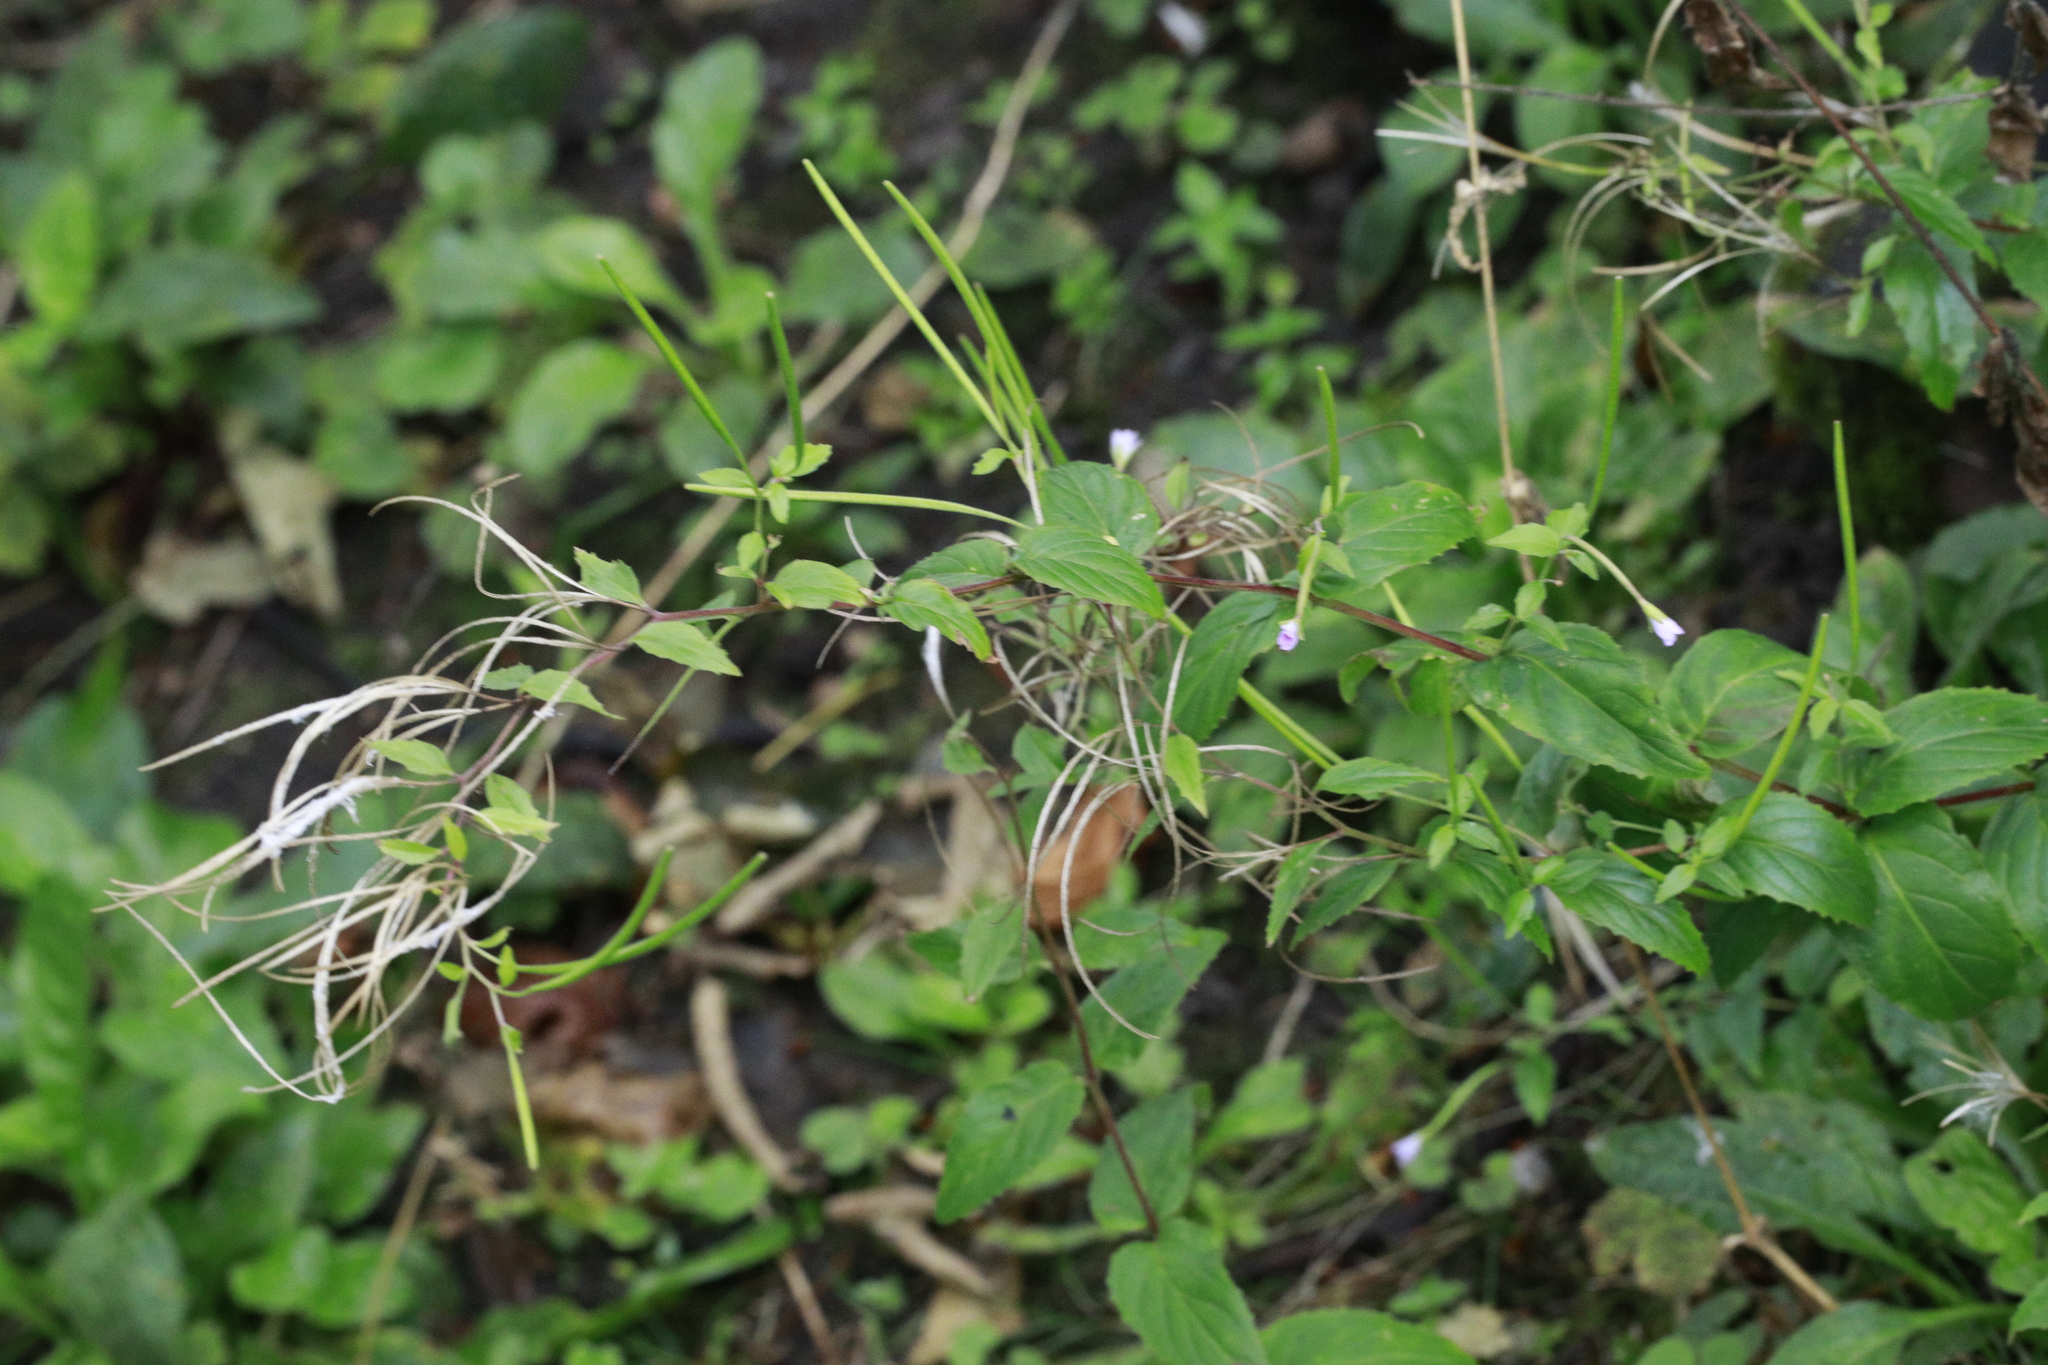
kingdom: Plantae
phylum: Tracheophyta
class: Magnoliopsida
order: Myrtales
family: Onagraceae
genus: Epilobium
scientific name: Epilobium montanum
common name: Broad-leaved willowherb
